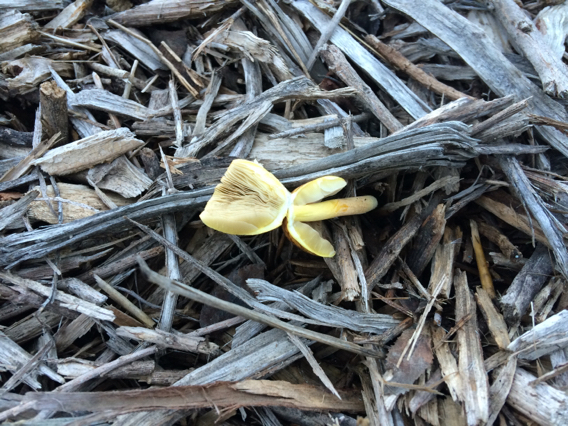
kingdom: Fungi
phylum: Basidiomycota
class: Agaricomycetes
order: Agaricales
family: Bolbitiaceae
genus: Bolbitius
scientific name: Bolbitius titubans
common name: Yellow fieldcap
